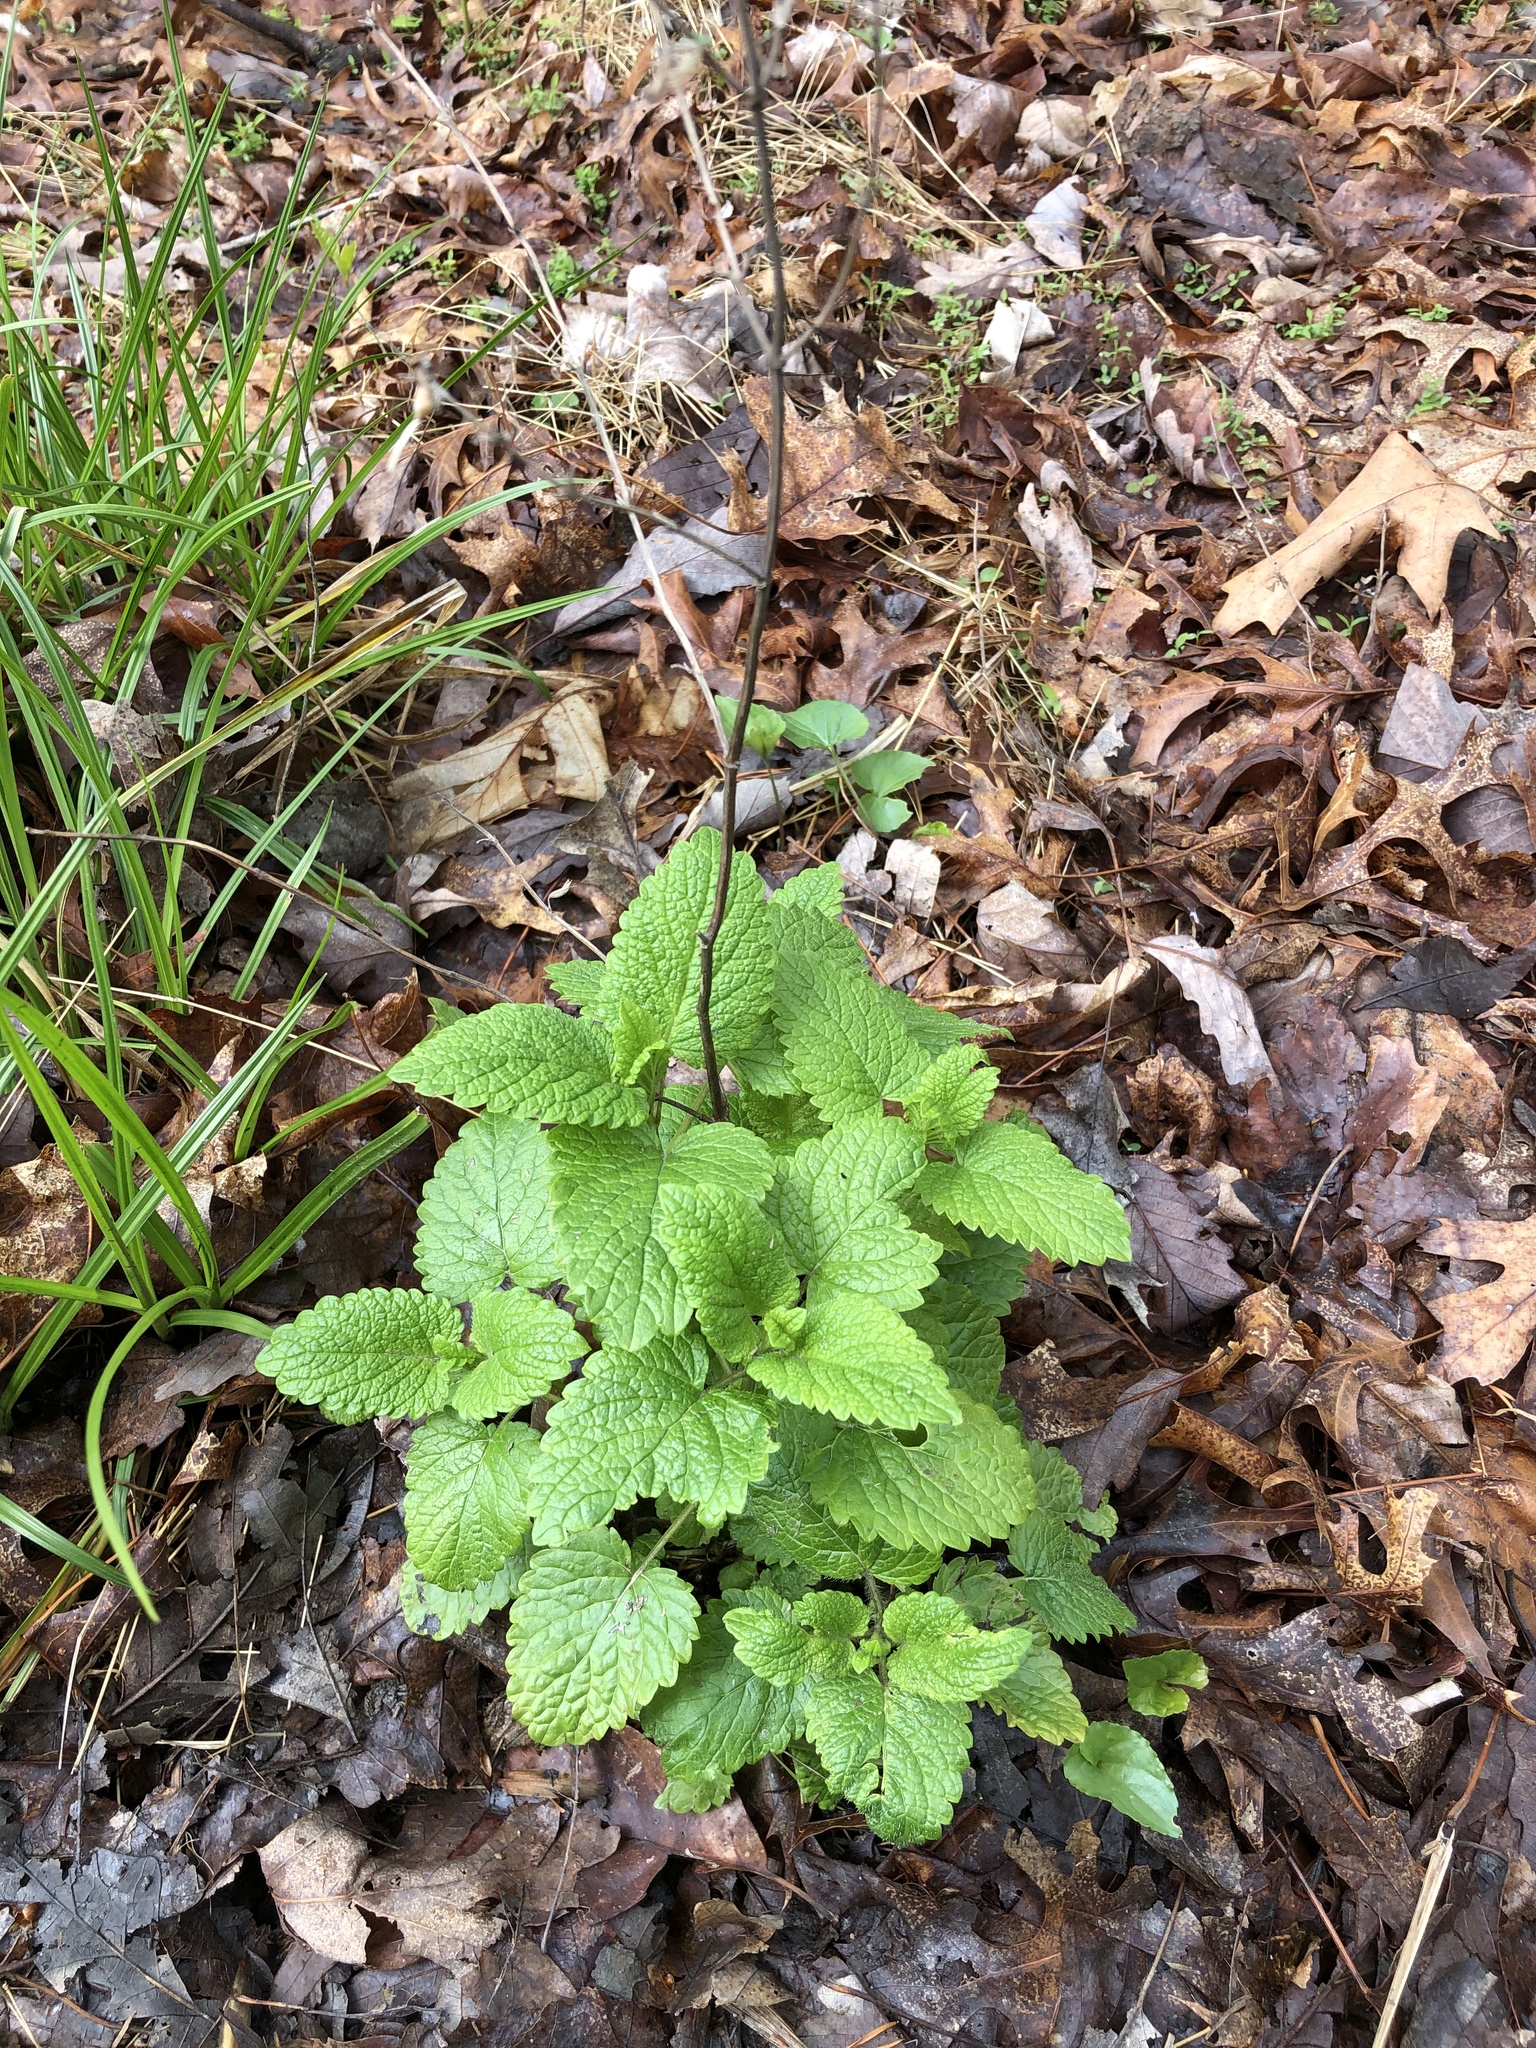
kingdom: Plantae
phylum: Tracheophyta
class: Magnoliopsida
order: Lamiales
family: Lamiaceae
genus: Melissa
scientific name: Melissa officinalis
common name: Balm
